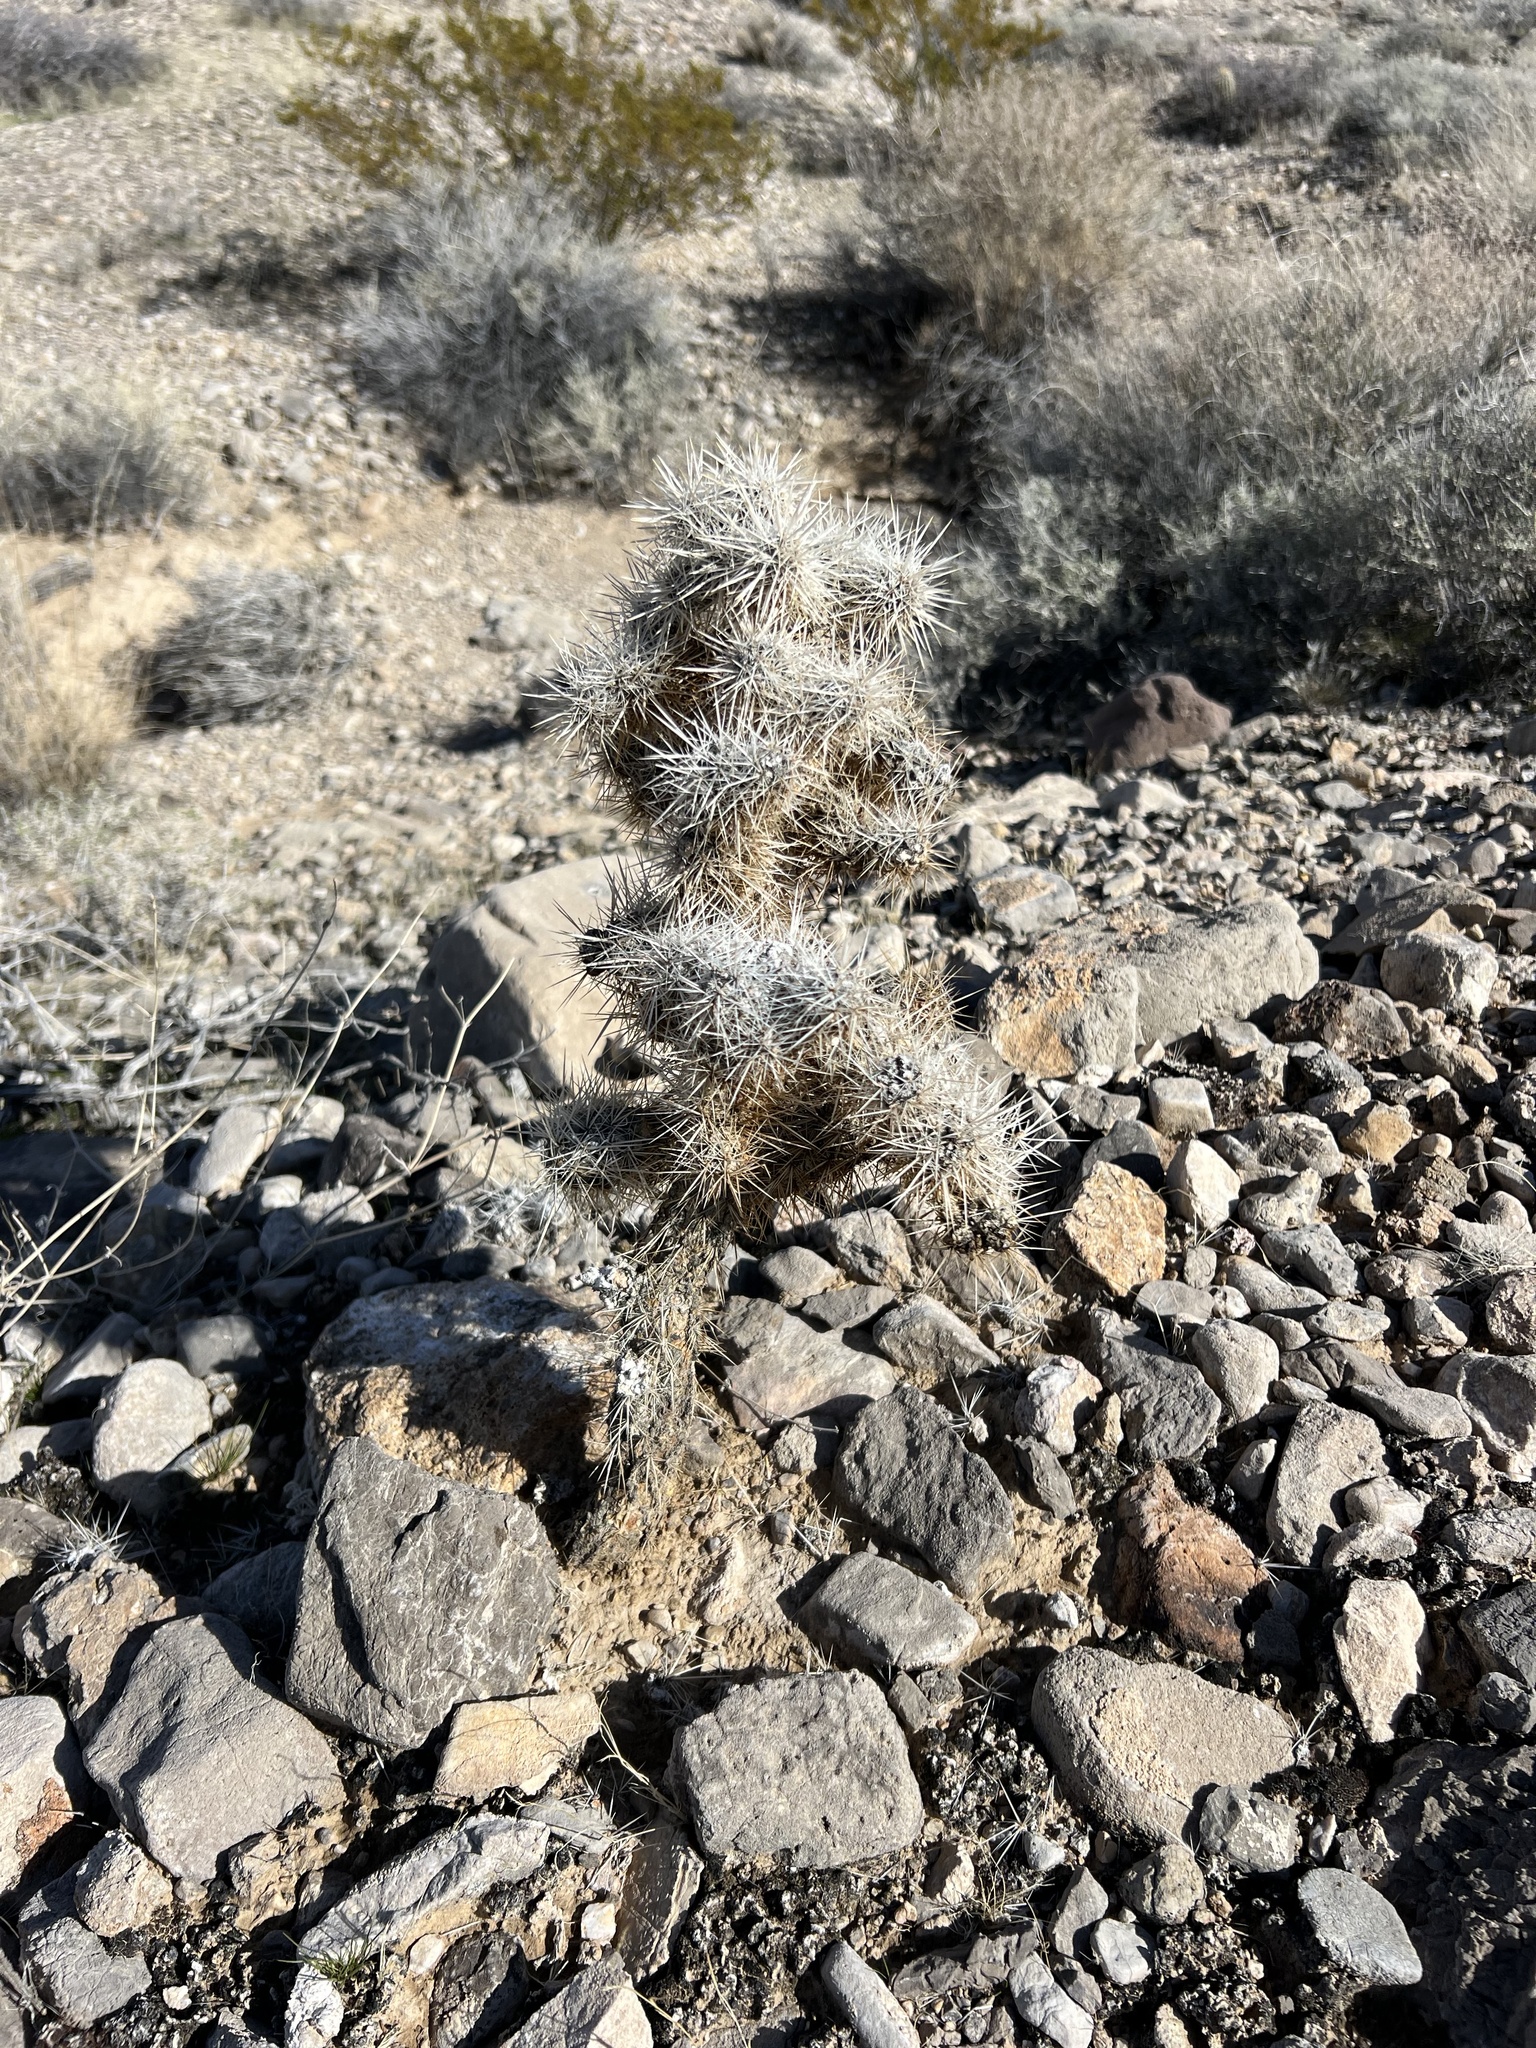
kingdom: Plantae
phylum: Tracheophyta
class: Magnoliopsida
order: Caryophyllales
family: Cactaceae
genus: Cylindropuntia
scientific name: Cylindropuntia echinocarpa
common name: Ground cholla
